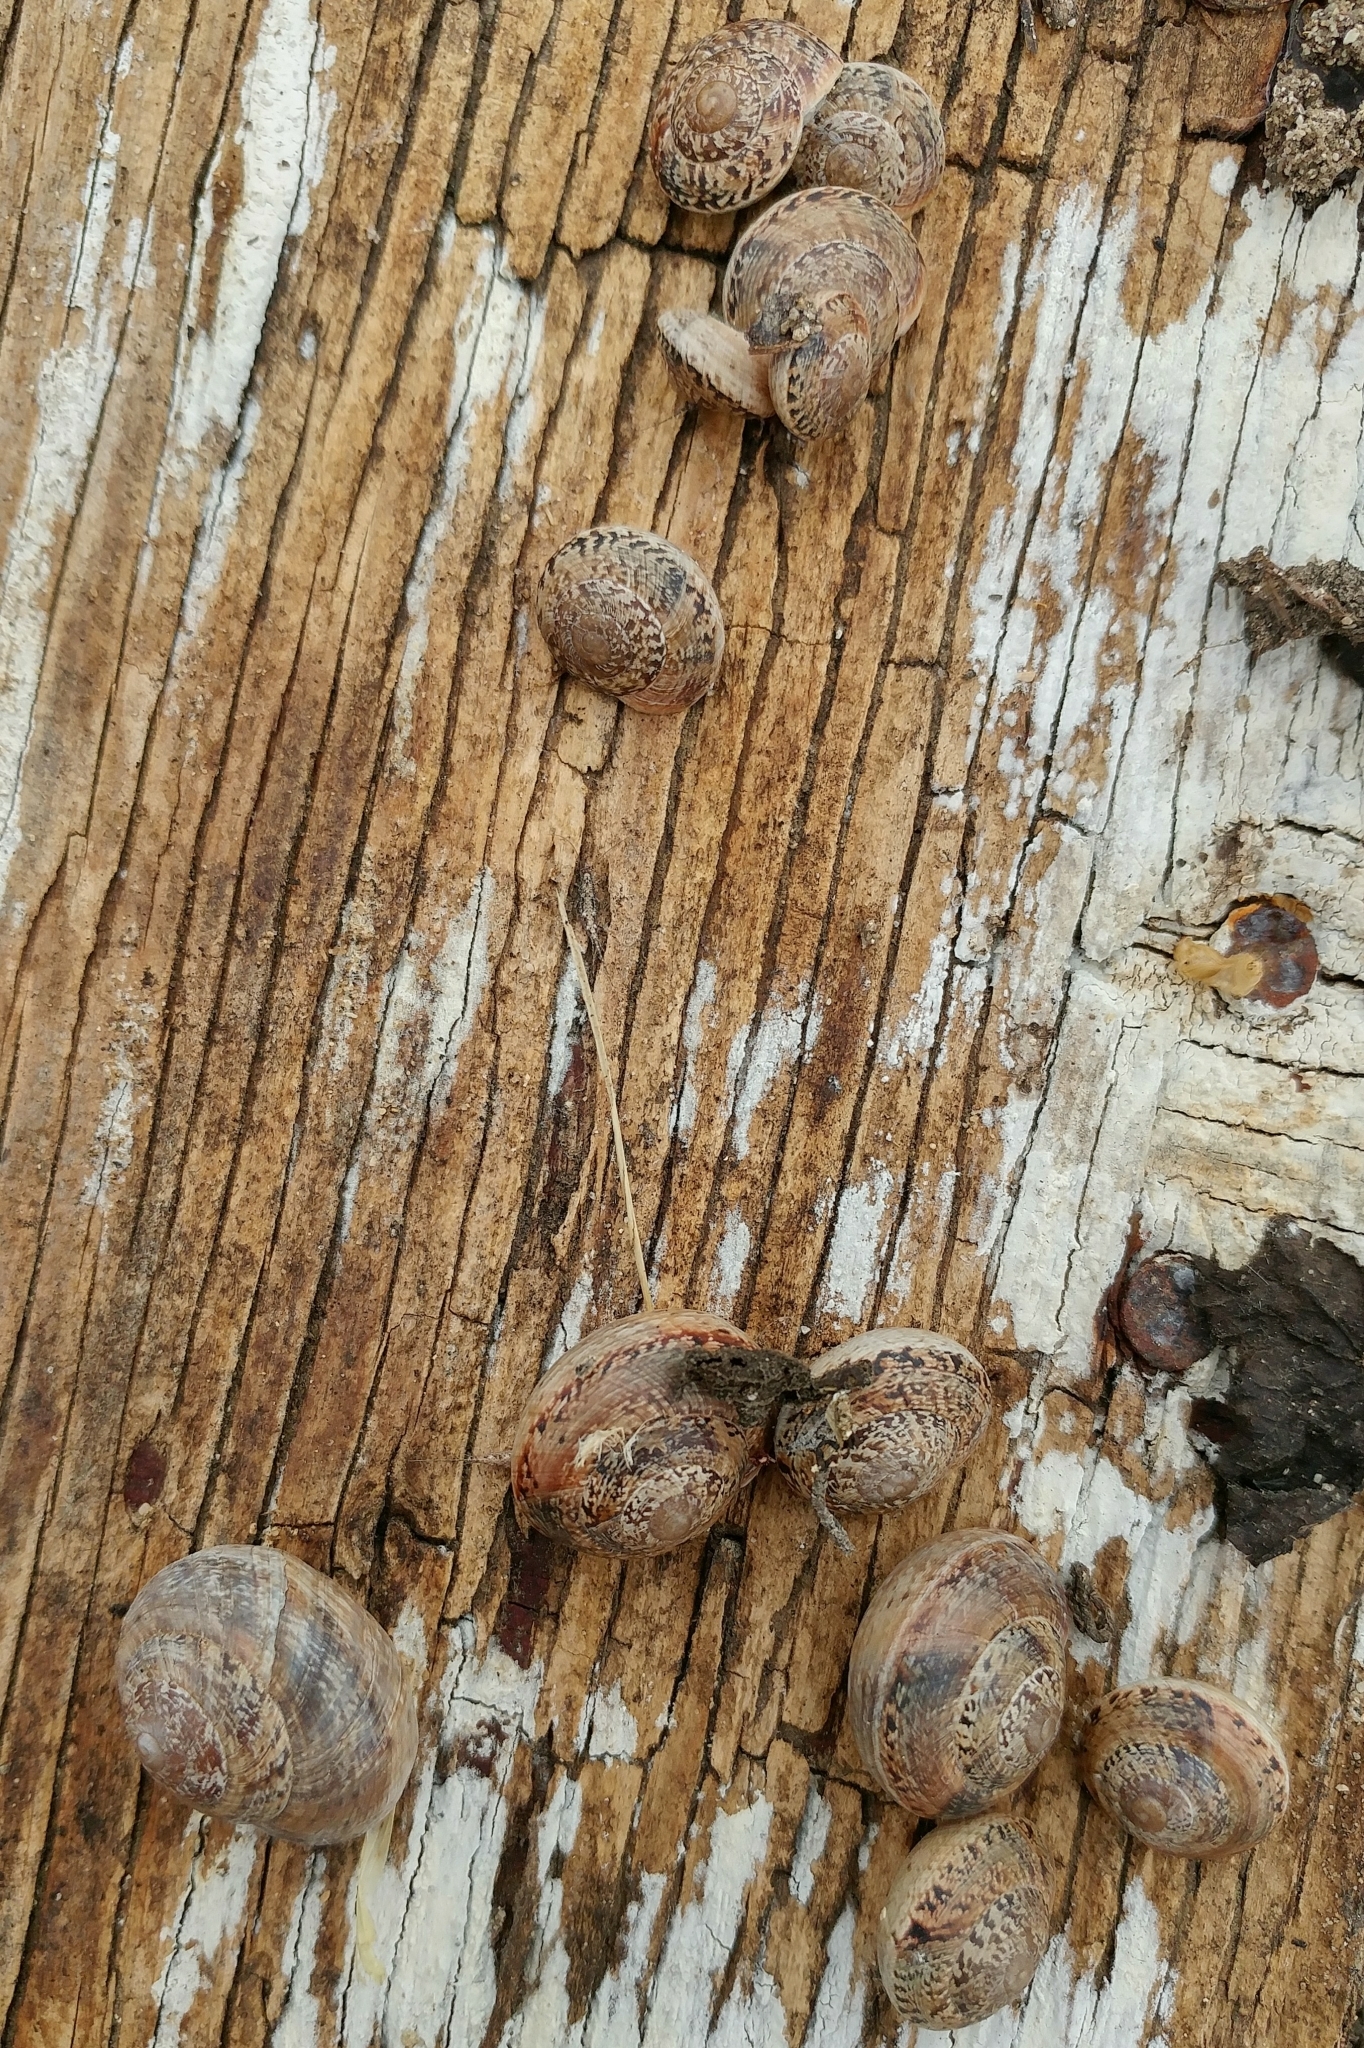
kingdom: Animalia
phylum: Mollusca
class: Gastropoda
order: Stylommatophora
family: Xanthonychidae
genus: Xerarionta
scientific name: Xerarionta tryoni
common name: Bicolor cactus snail
